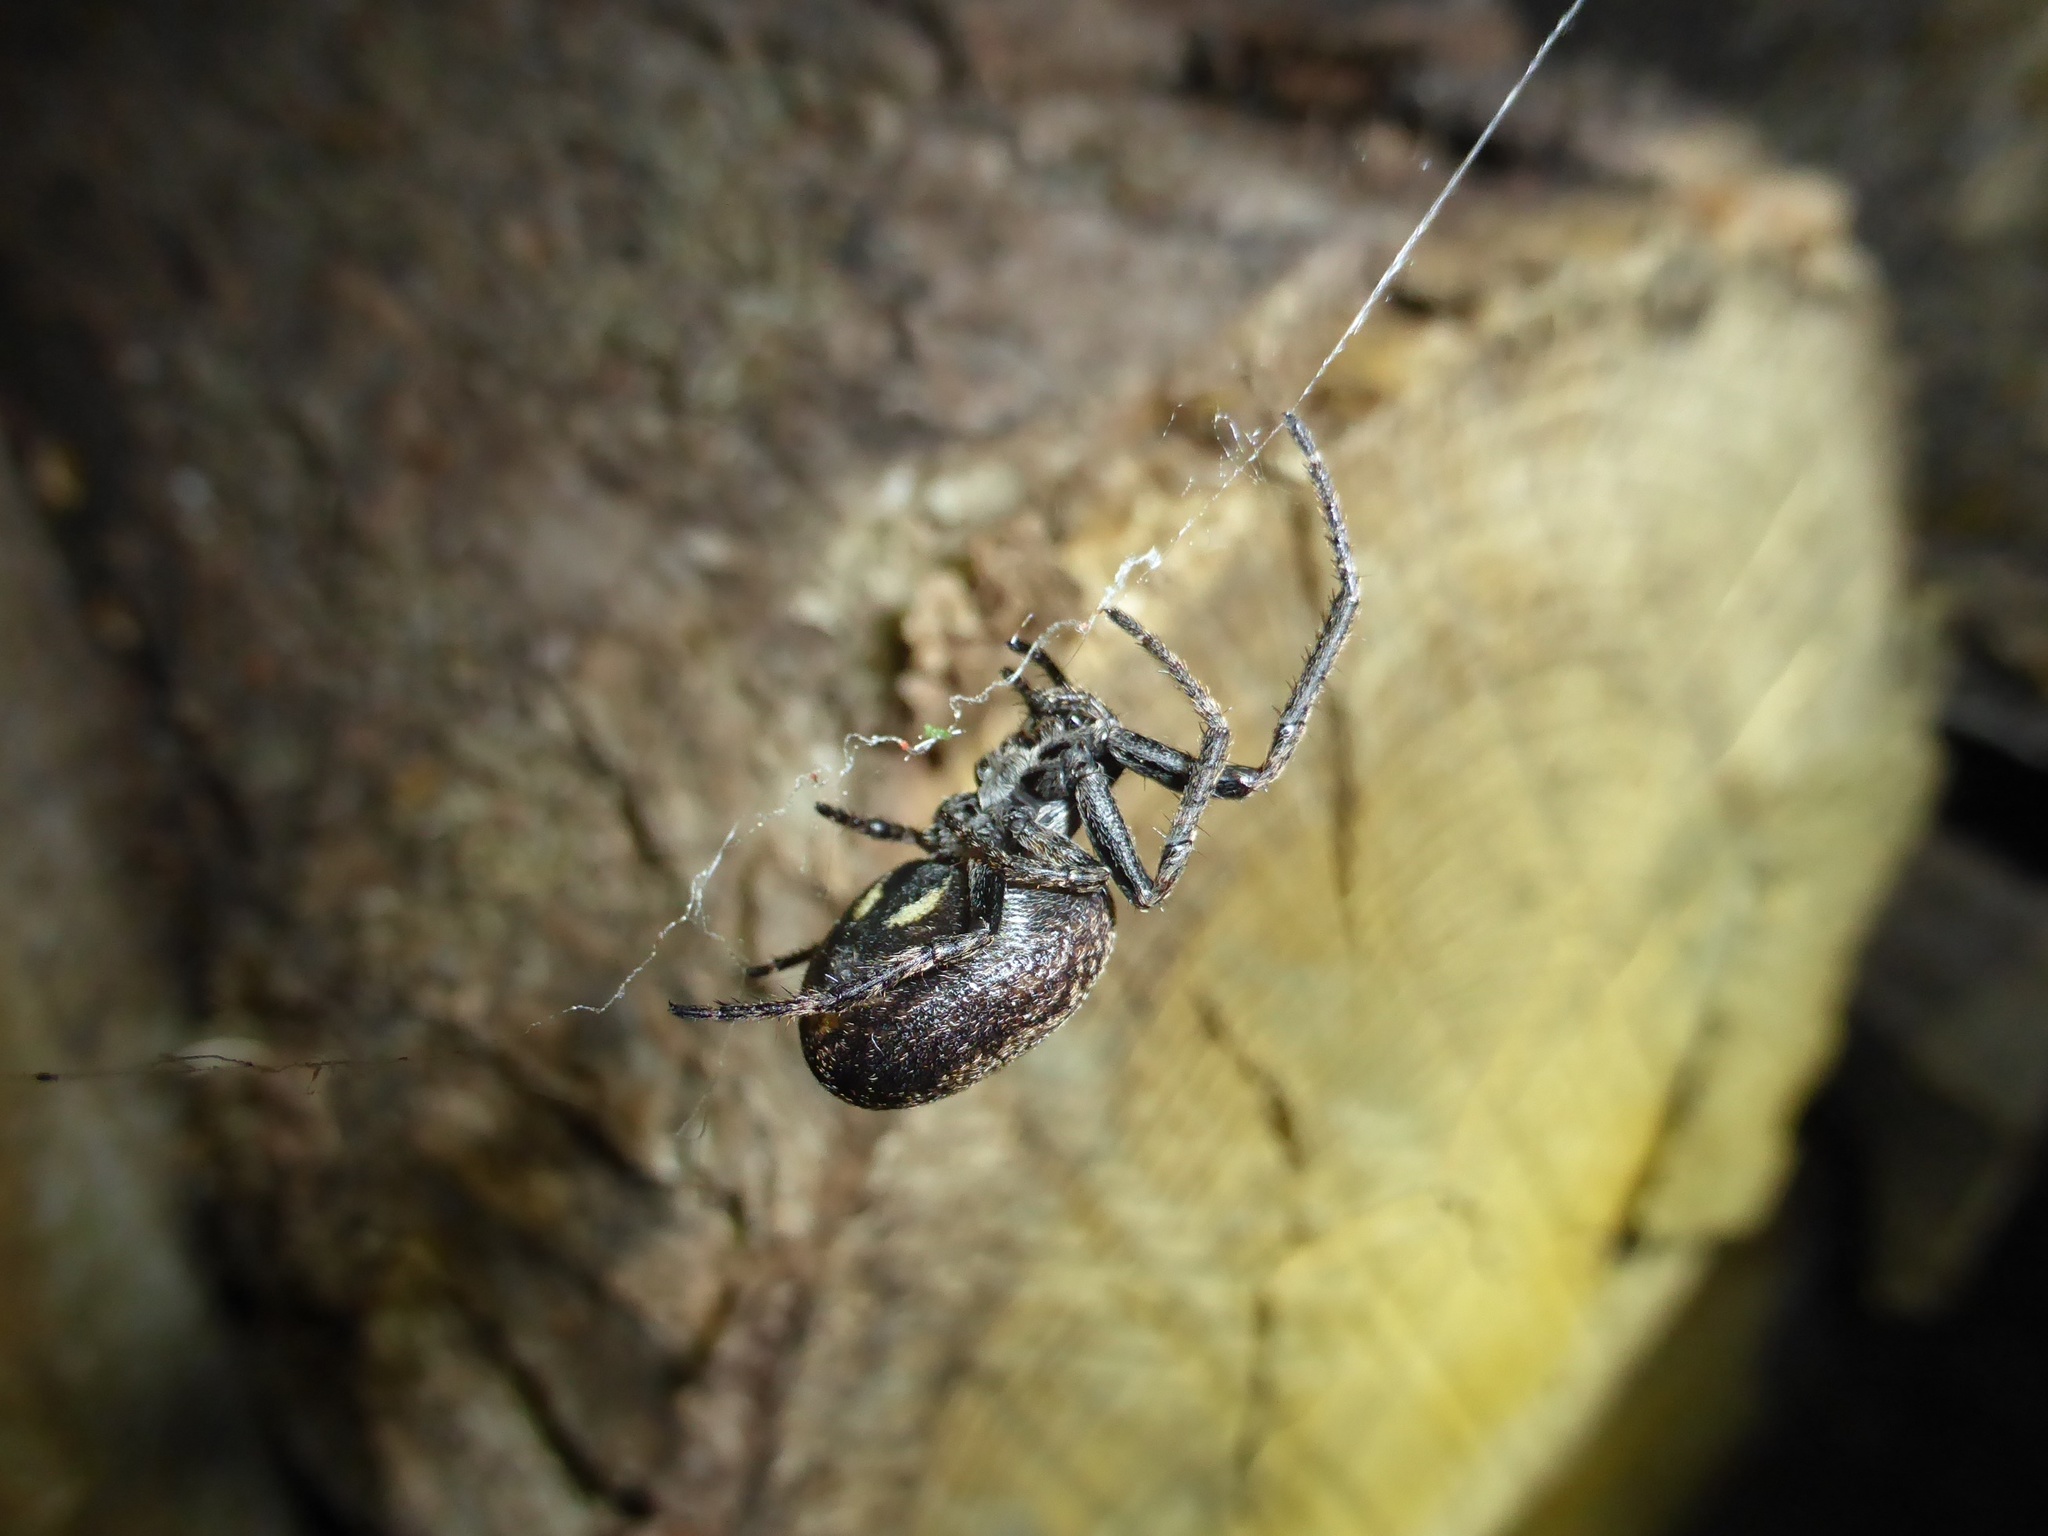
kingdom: Animalia
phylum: Arthropoda
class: Arachnida
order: Araneae
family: Araneidae
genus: Nuctenea
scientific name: Nuctenea umbratica
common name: Toad spider
